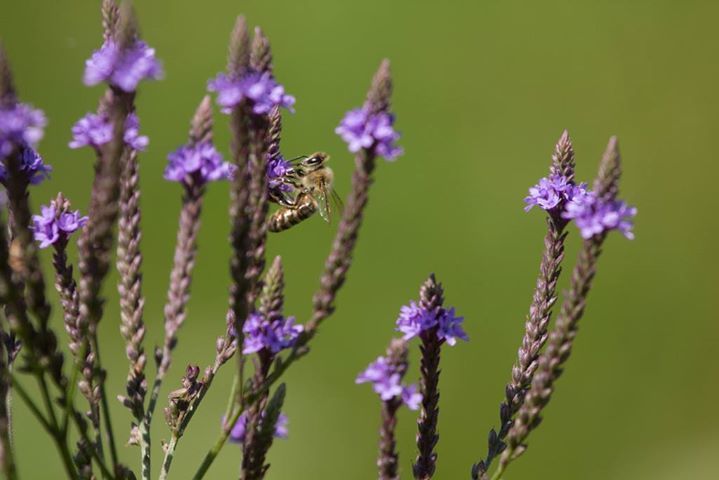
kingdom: Animalia
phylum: Arthropoda
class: Insecta
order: Hymenoptera
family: Apidae
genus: Apis
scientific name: Apis mellifera
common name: Honey bee
